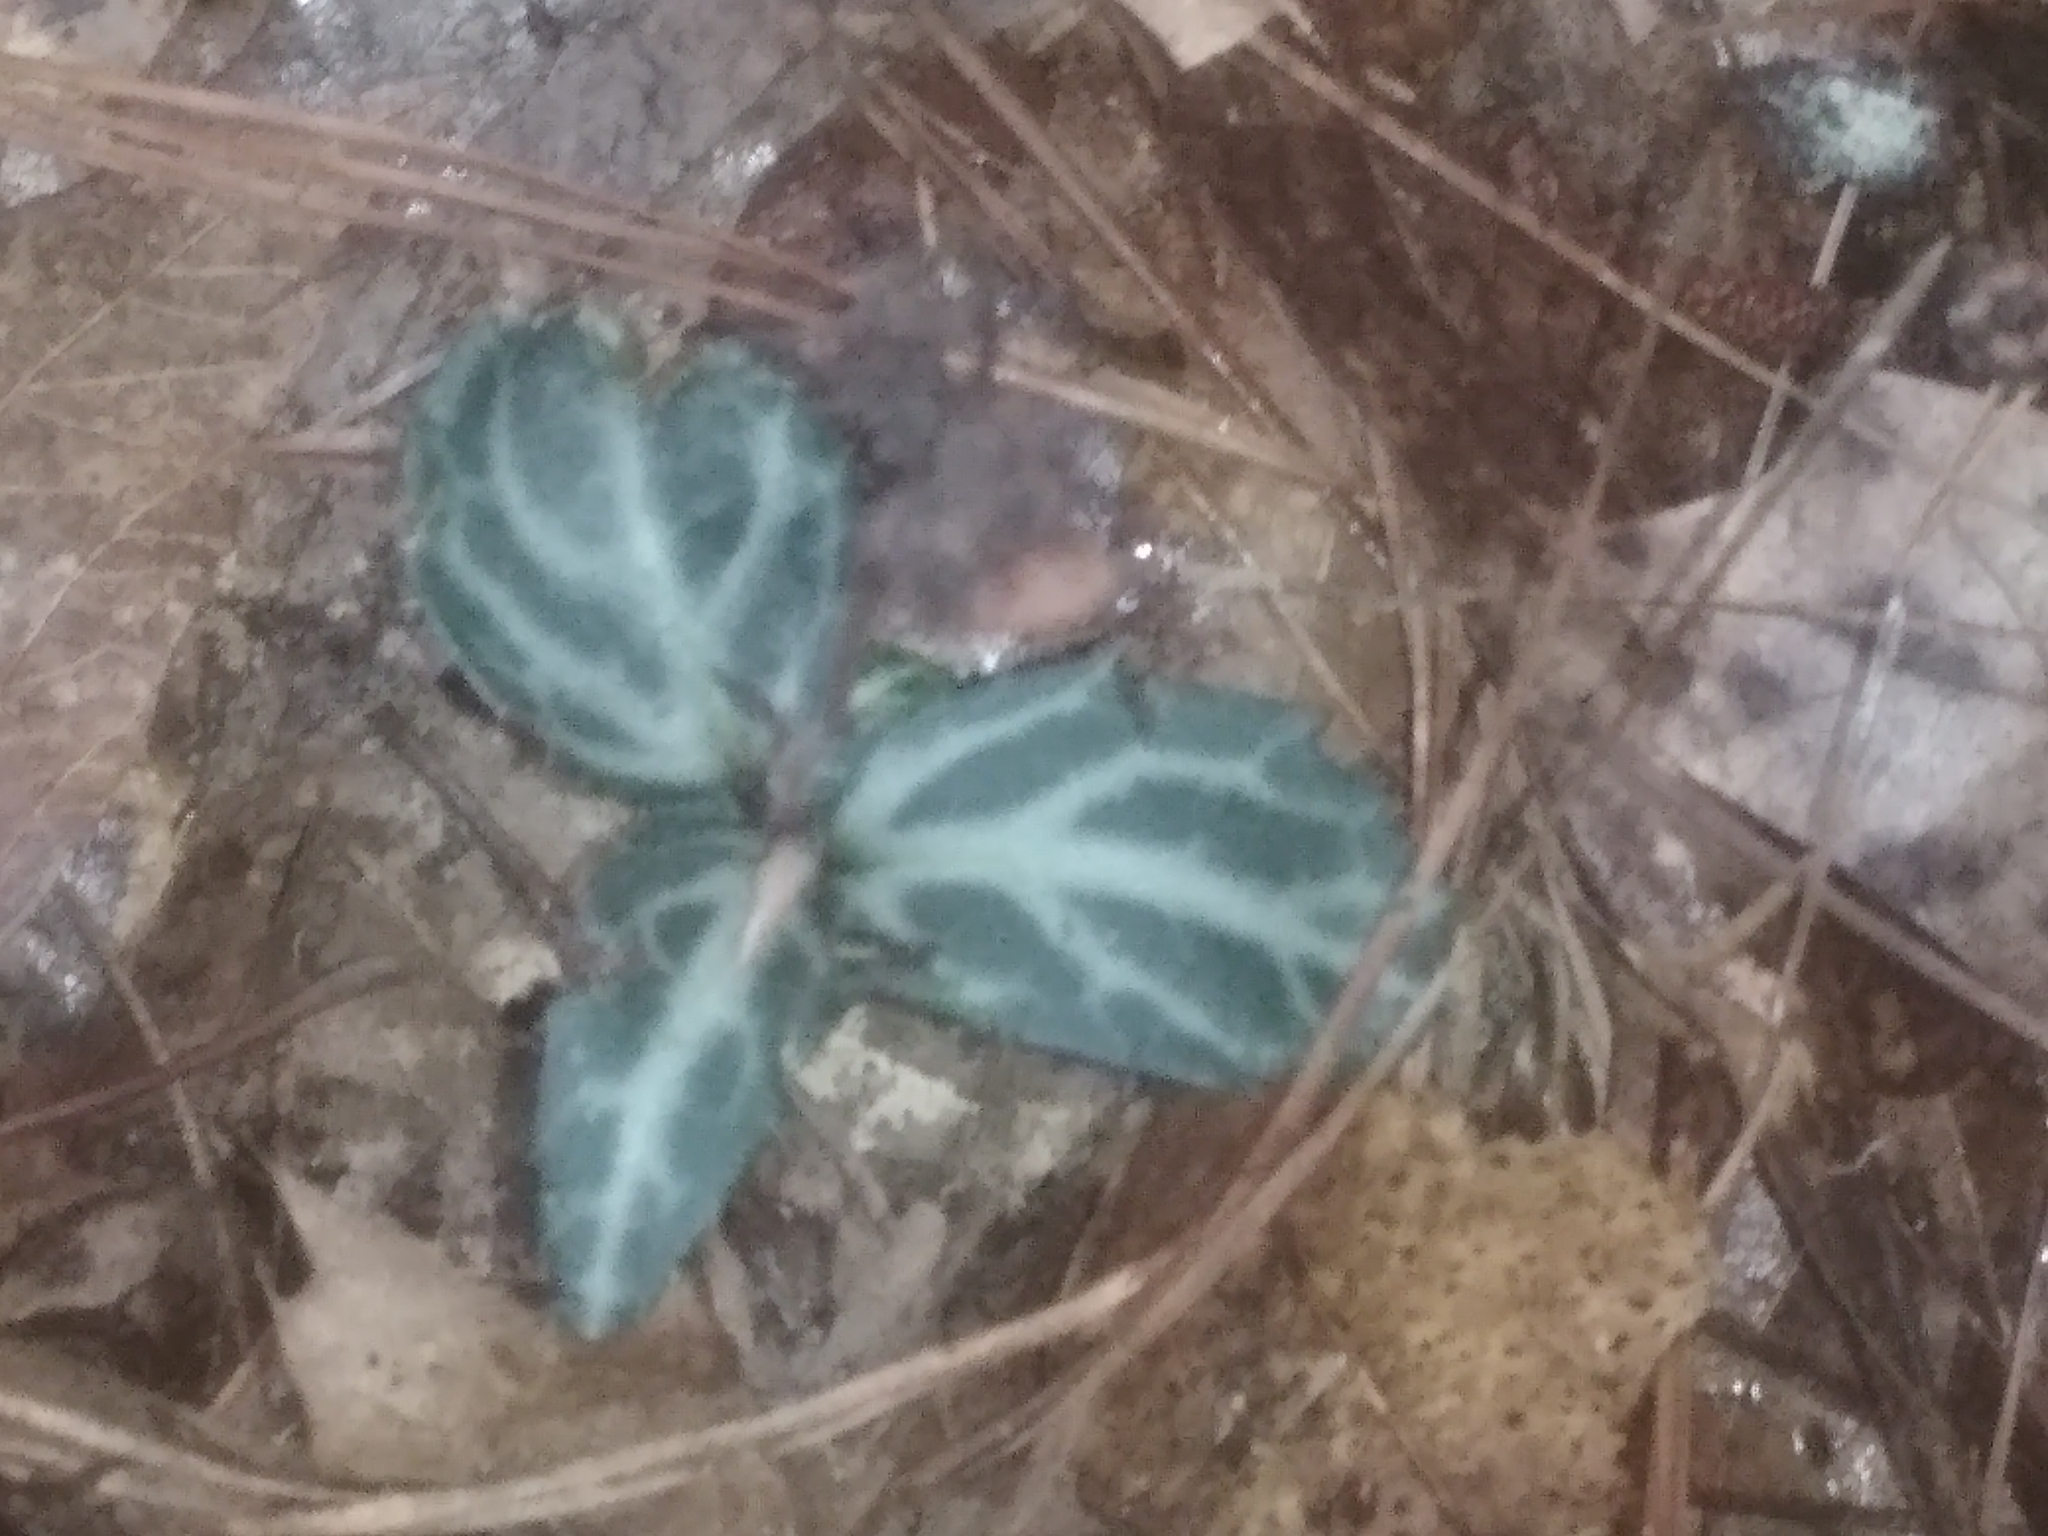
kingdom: Plantae
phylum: Tracheophyta
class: Magnoliopsida
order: Ericales
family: Ericaceae
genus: Chimaphila
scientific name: Chimaphila maculata
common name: Spotted pipsissewa
